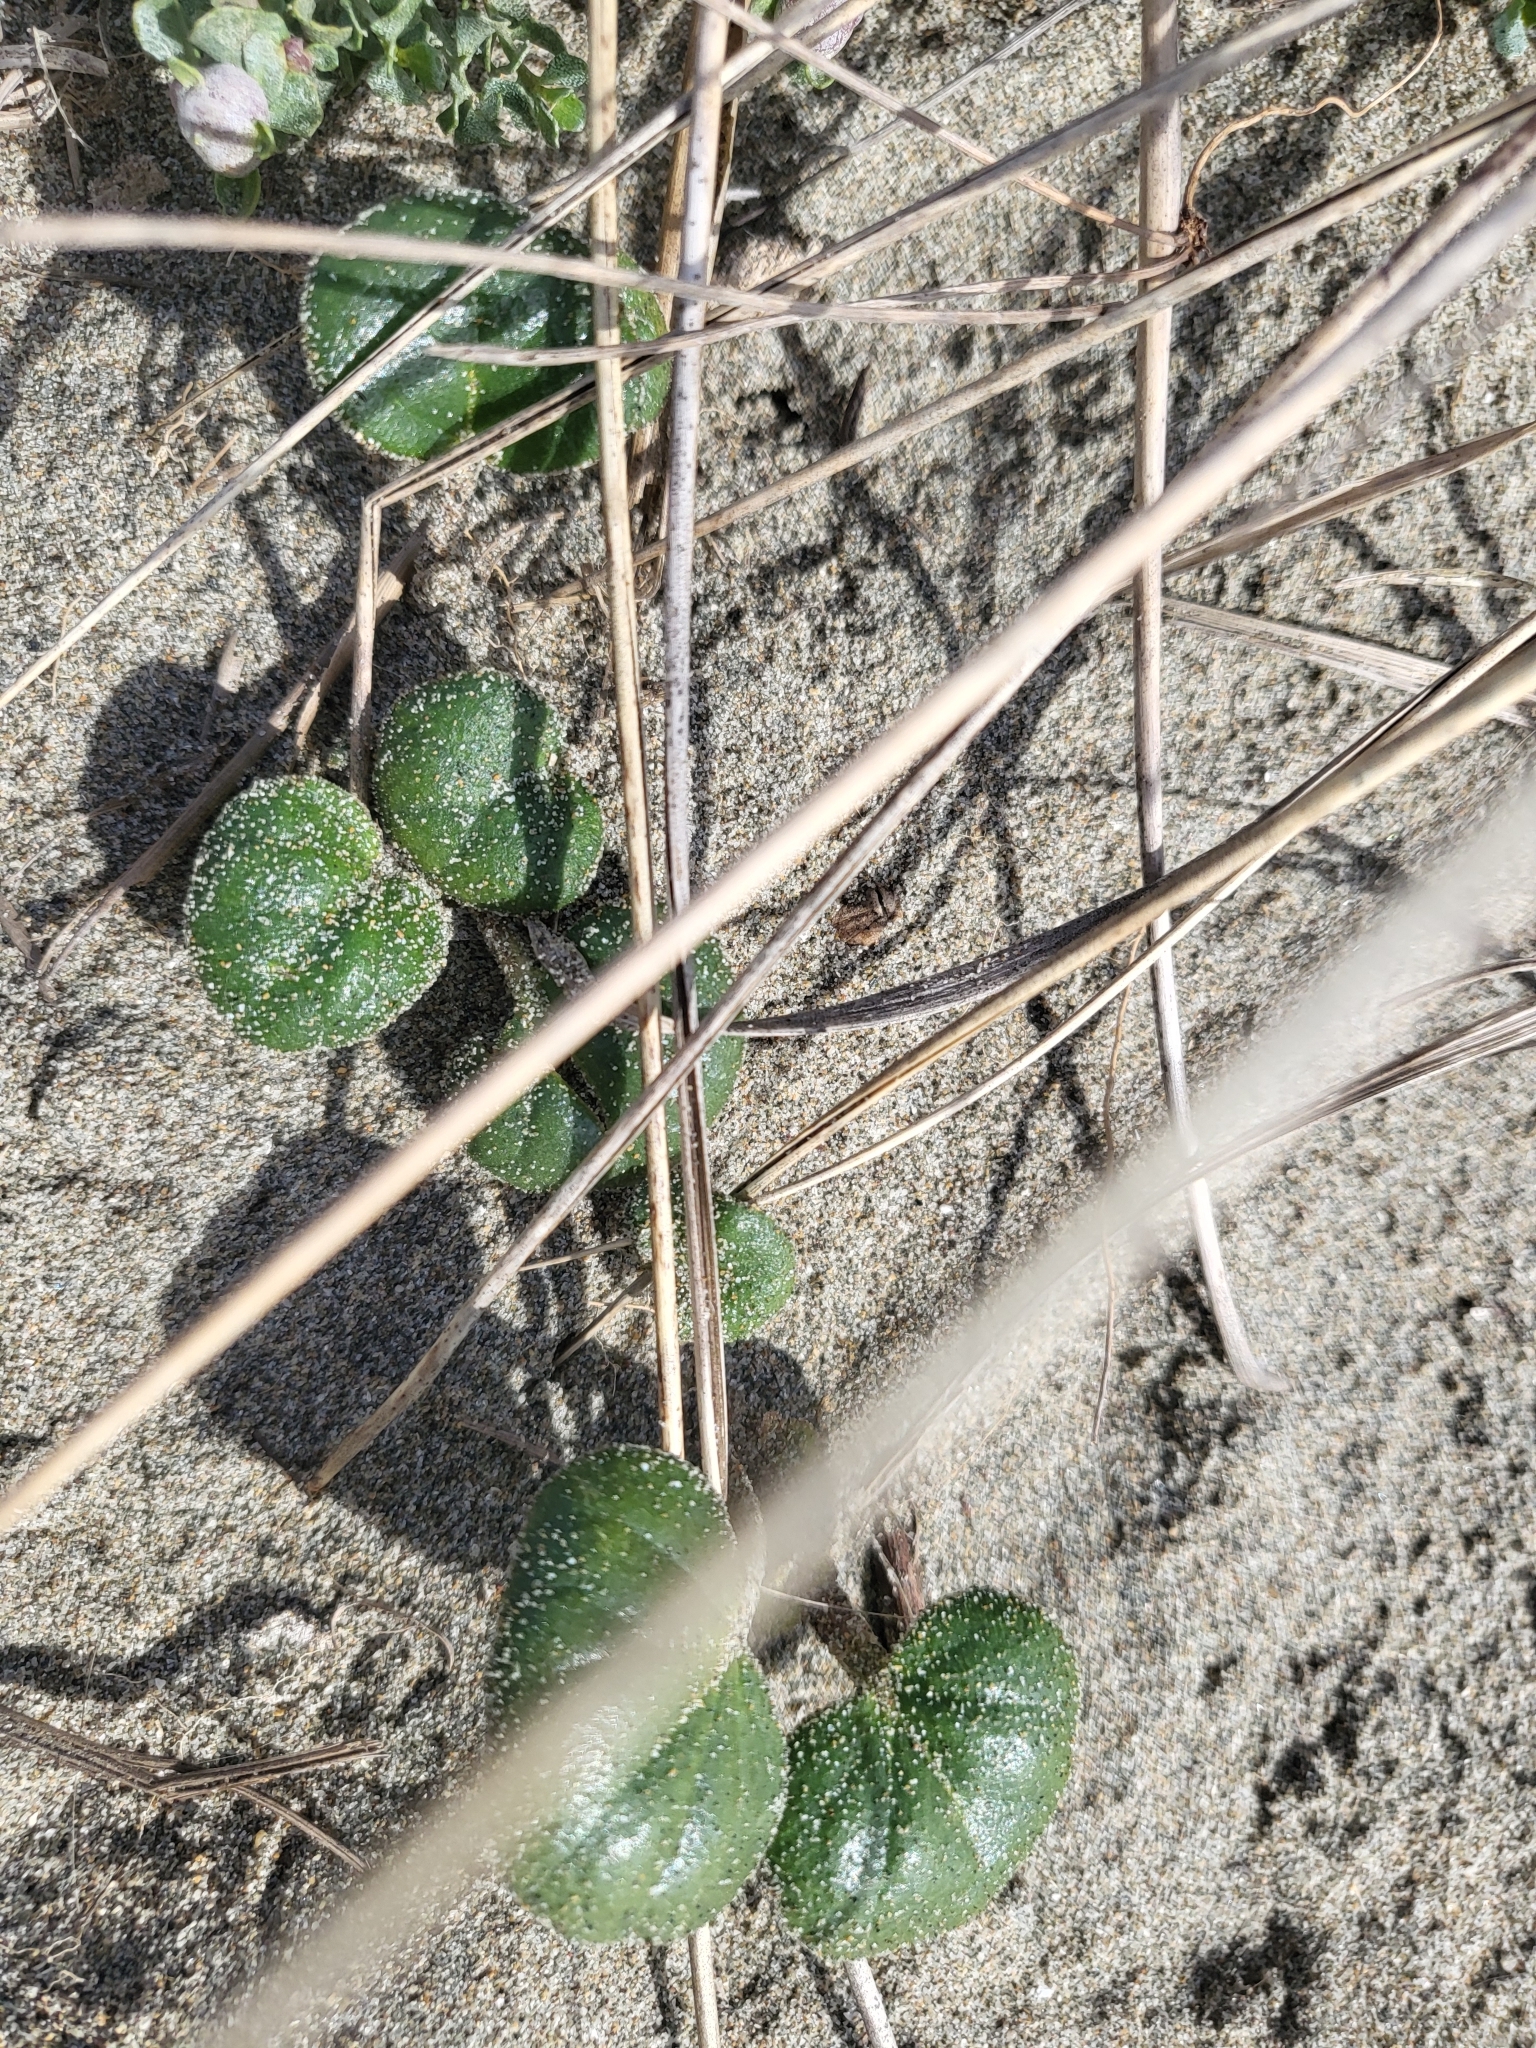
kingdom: Plantae
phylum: Tracheophyta
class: Magnoliopsida
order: Caryophyllales
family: Nyctaginaceae
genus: Abronia
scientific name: Abronia latifolia
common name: Yellow sand-verbena
